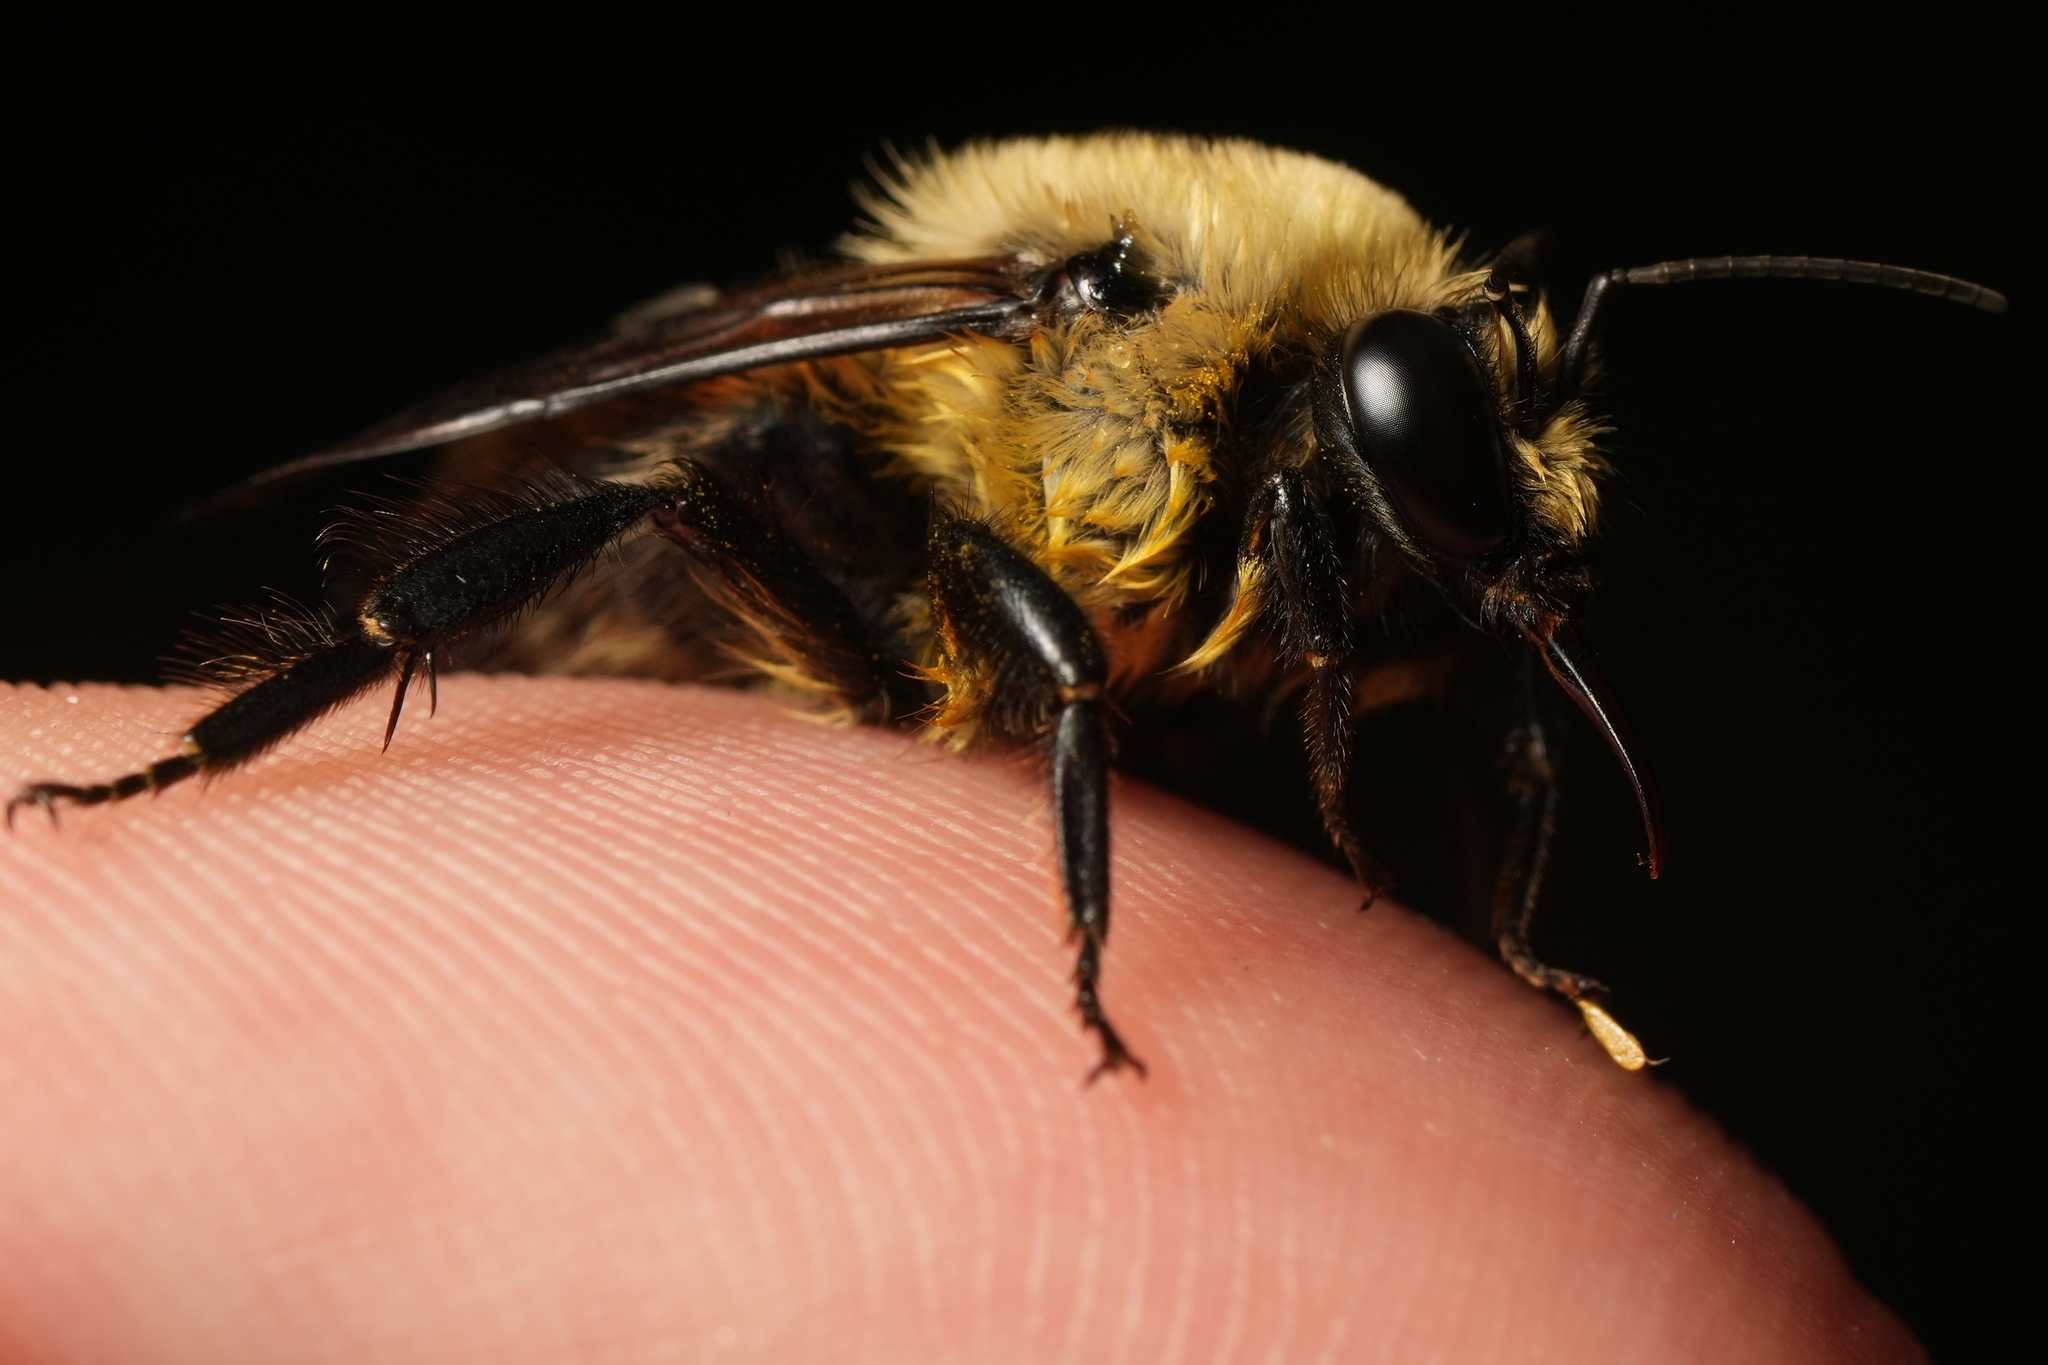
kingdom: Animalia
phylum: Arthropoda
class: Insecta
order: Hymenoptera
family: Apidae
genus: Bombus
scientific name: Bombus griseocollis
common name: Brown-belted bumble bee
